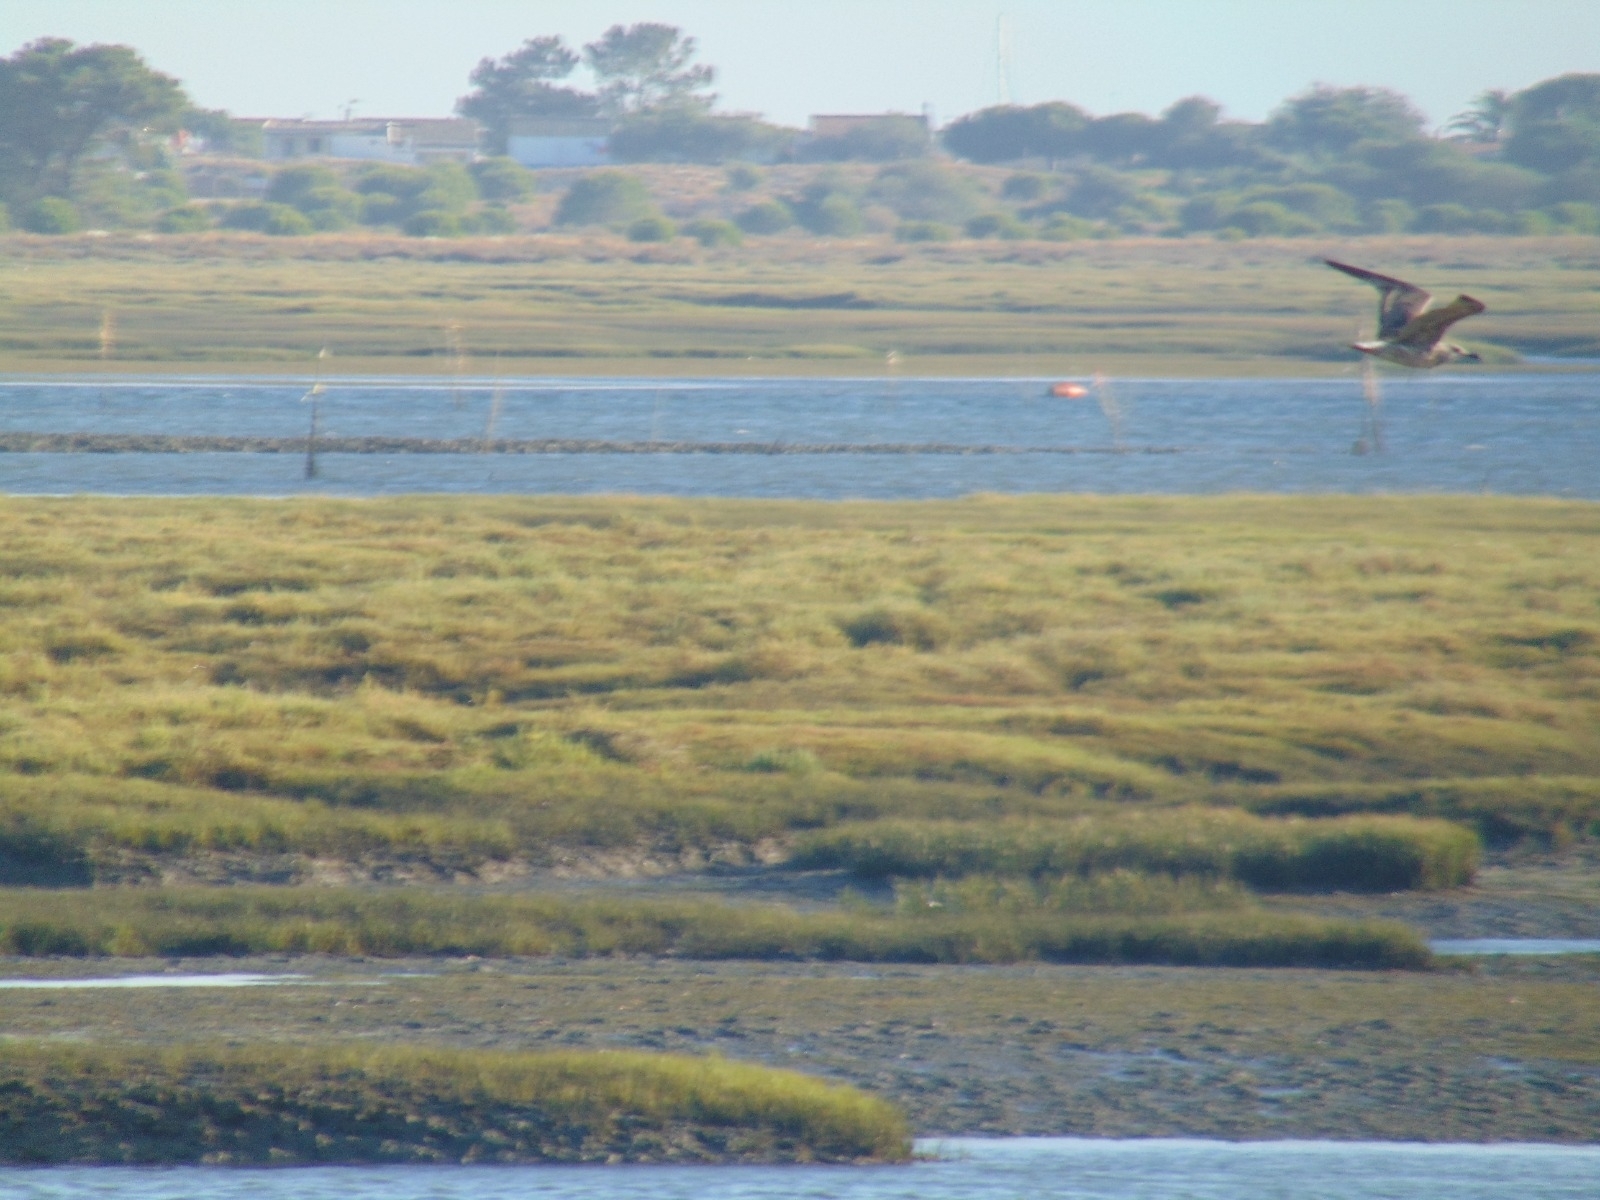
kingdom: Animalia
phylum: Chordata
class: Aves
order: Charadriiformes
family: Laridae
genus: Larus
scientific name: Larus
